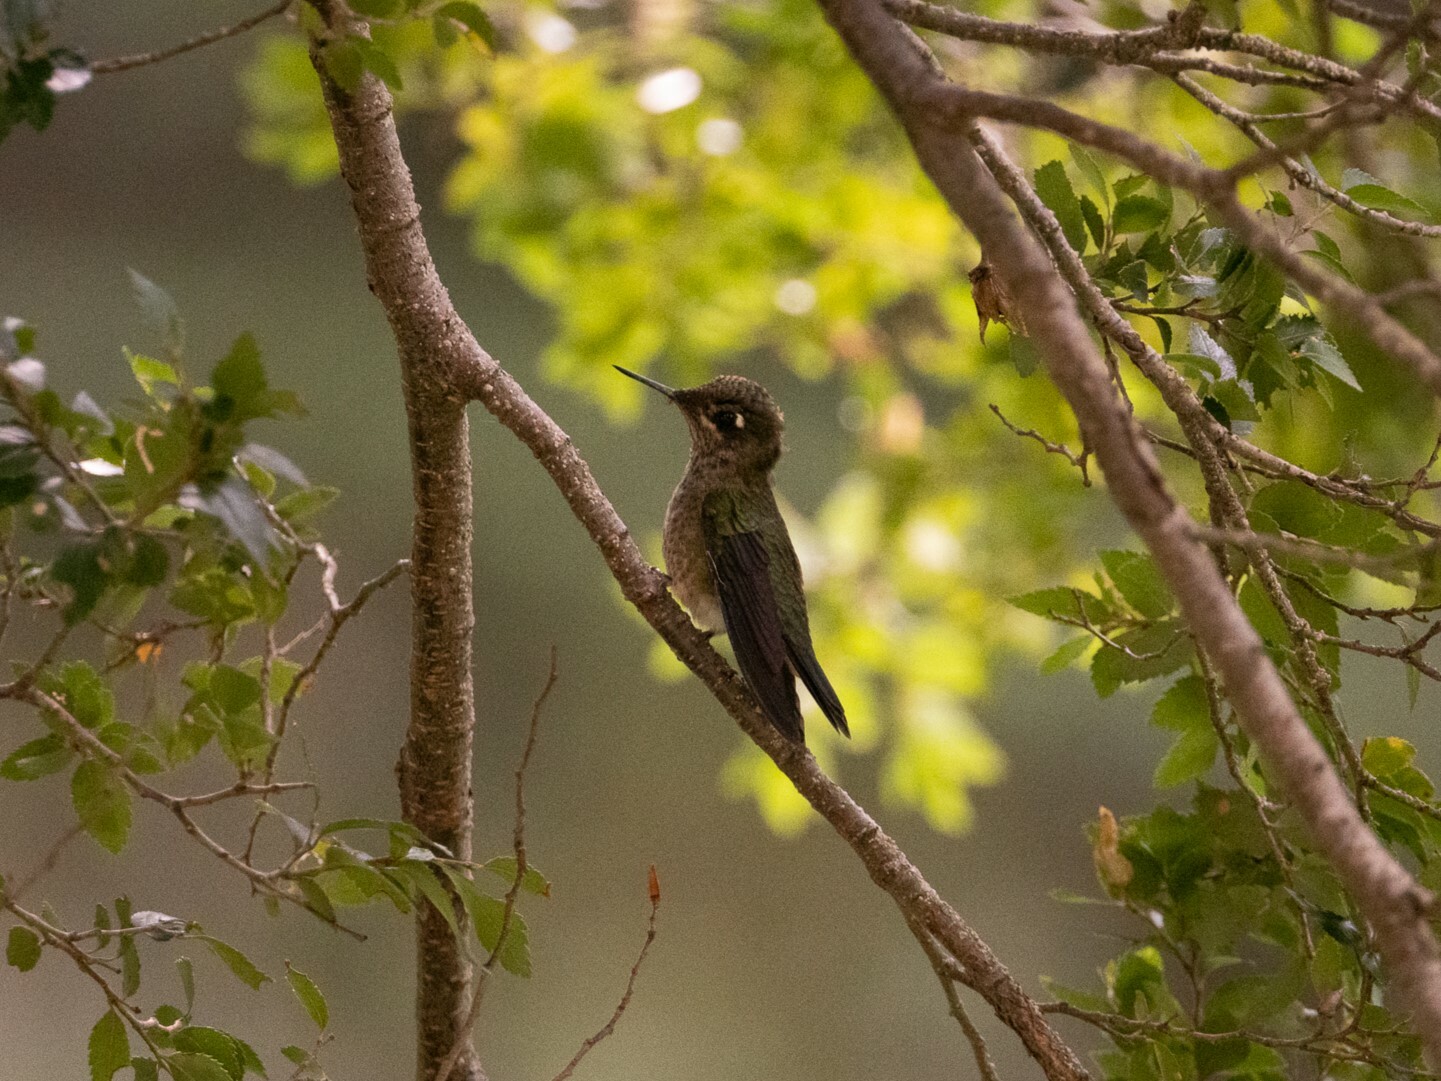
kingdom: Animalia
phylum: Chordata
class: Aves
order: Apodiformes
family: Trochilidae
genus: Sephanoides
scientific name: Sephanoides sephaniodes
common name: Green-backed firecrown
